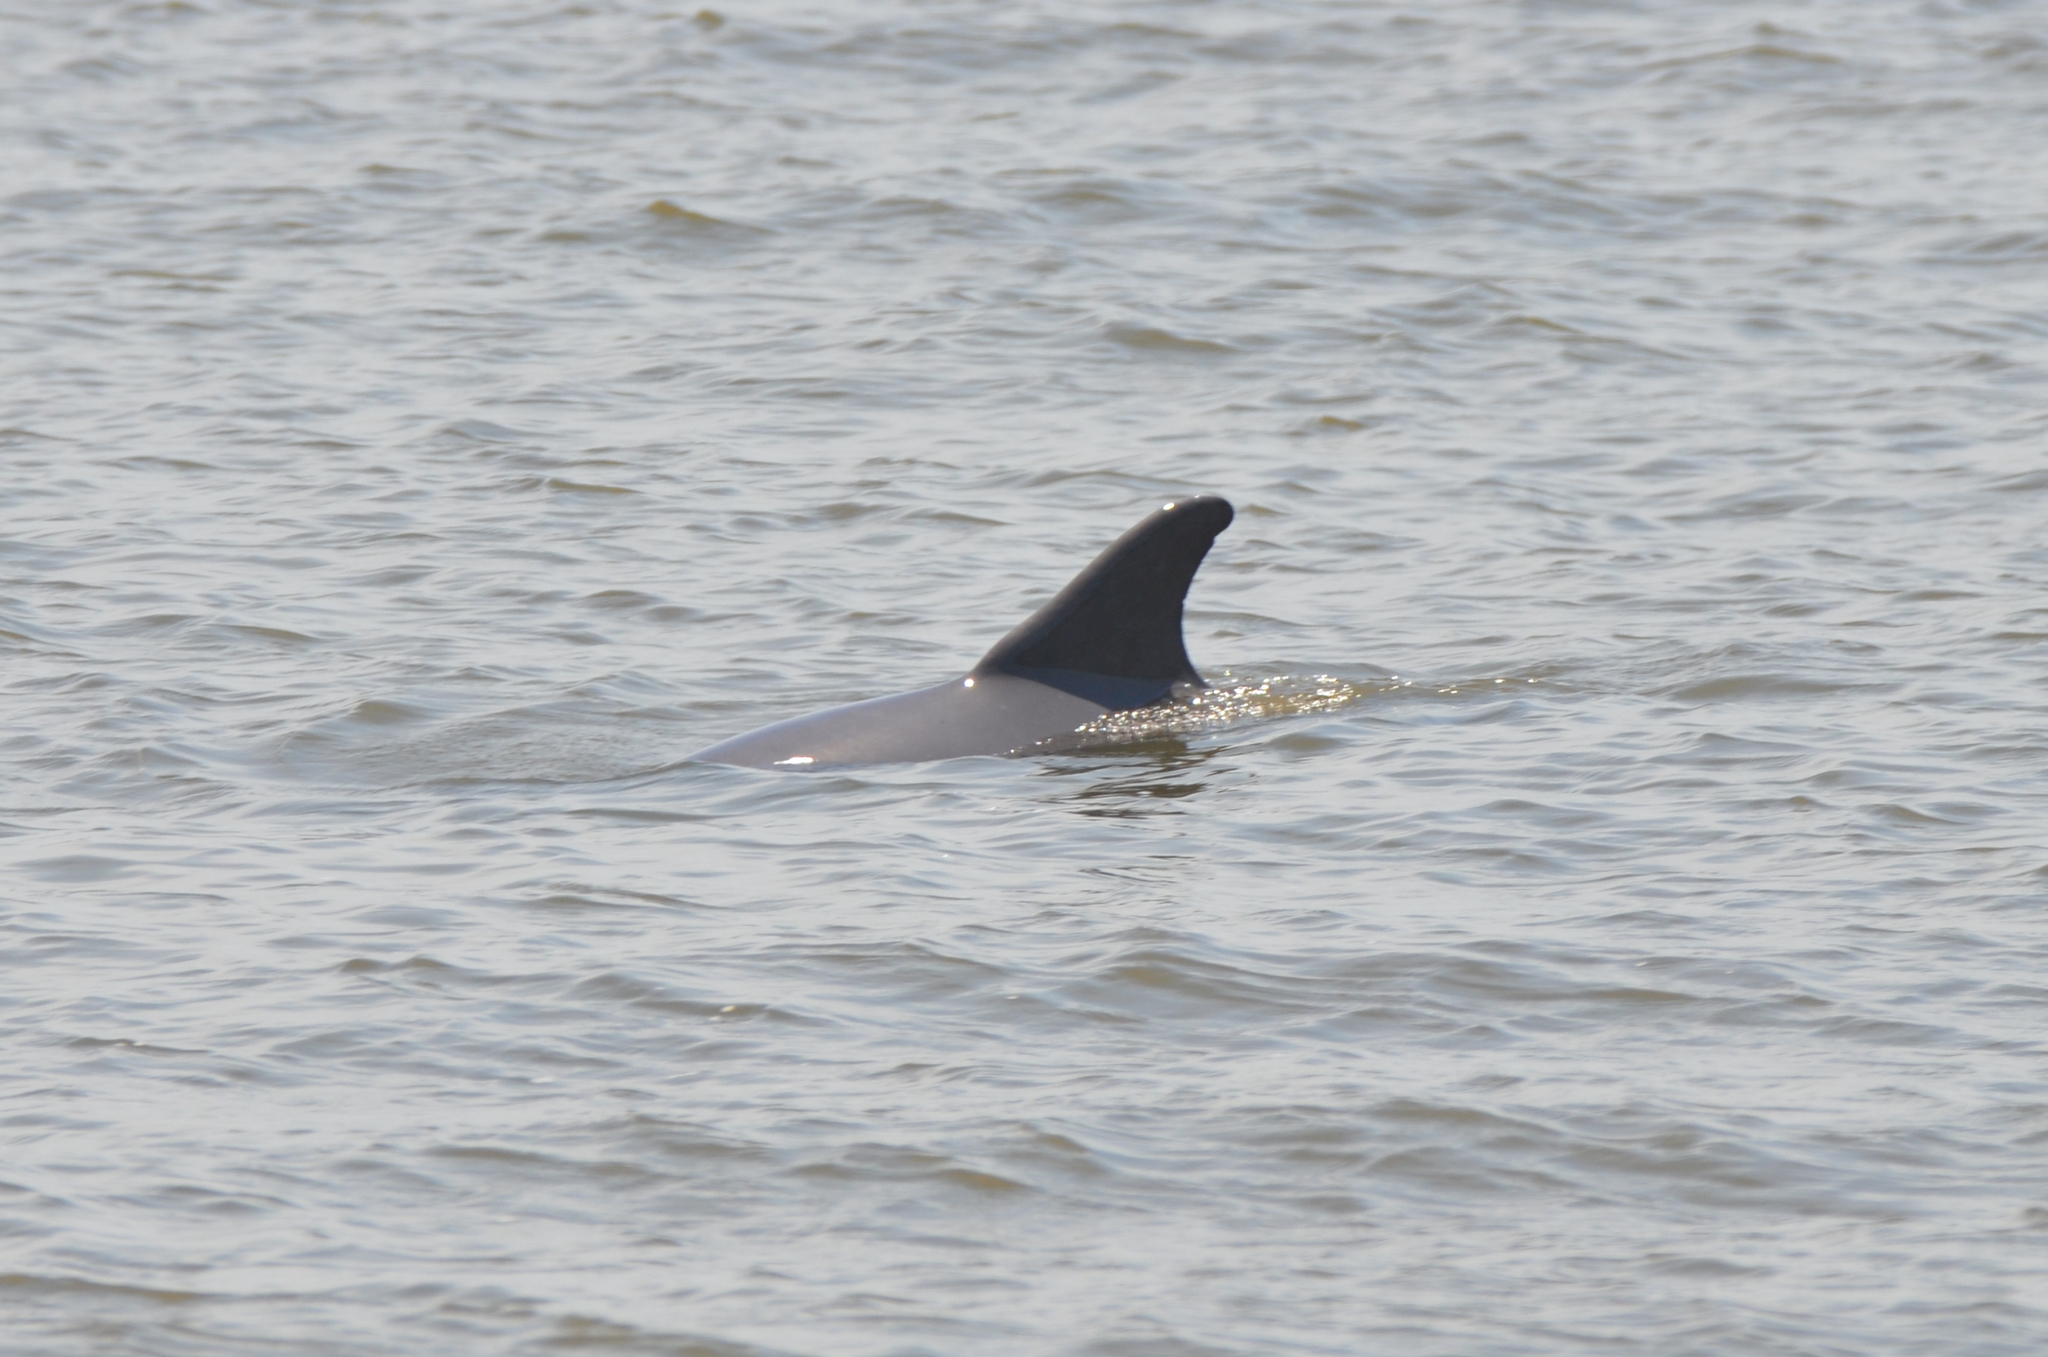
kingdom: Animalia
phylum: Chordata
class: Mammalia
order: Cetacea
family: Delphinidae
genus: Tursiops
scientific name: Tursiops truncatus
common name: Bottlenose dolphin
